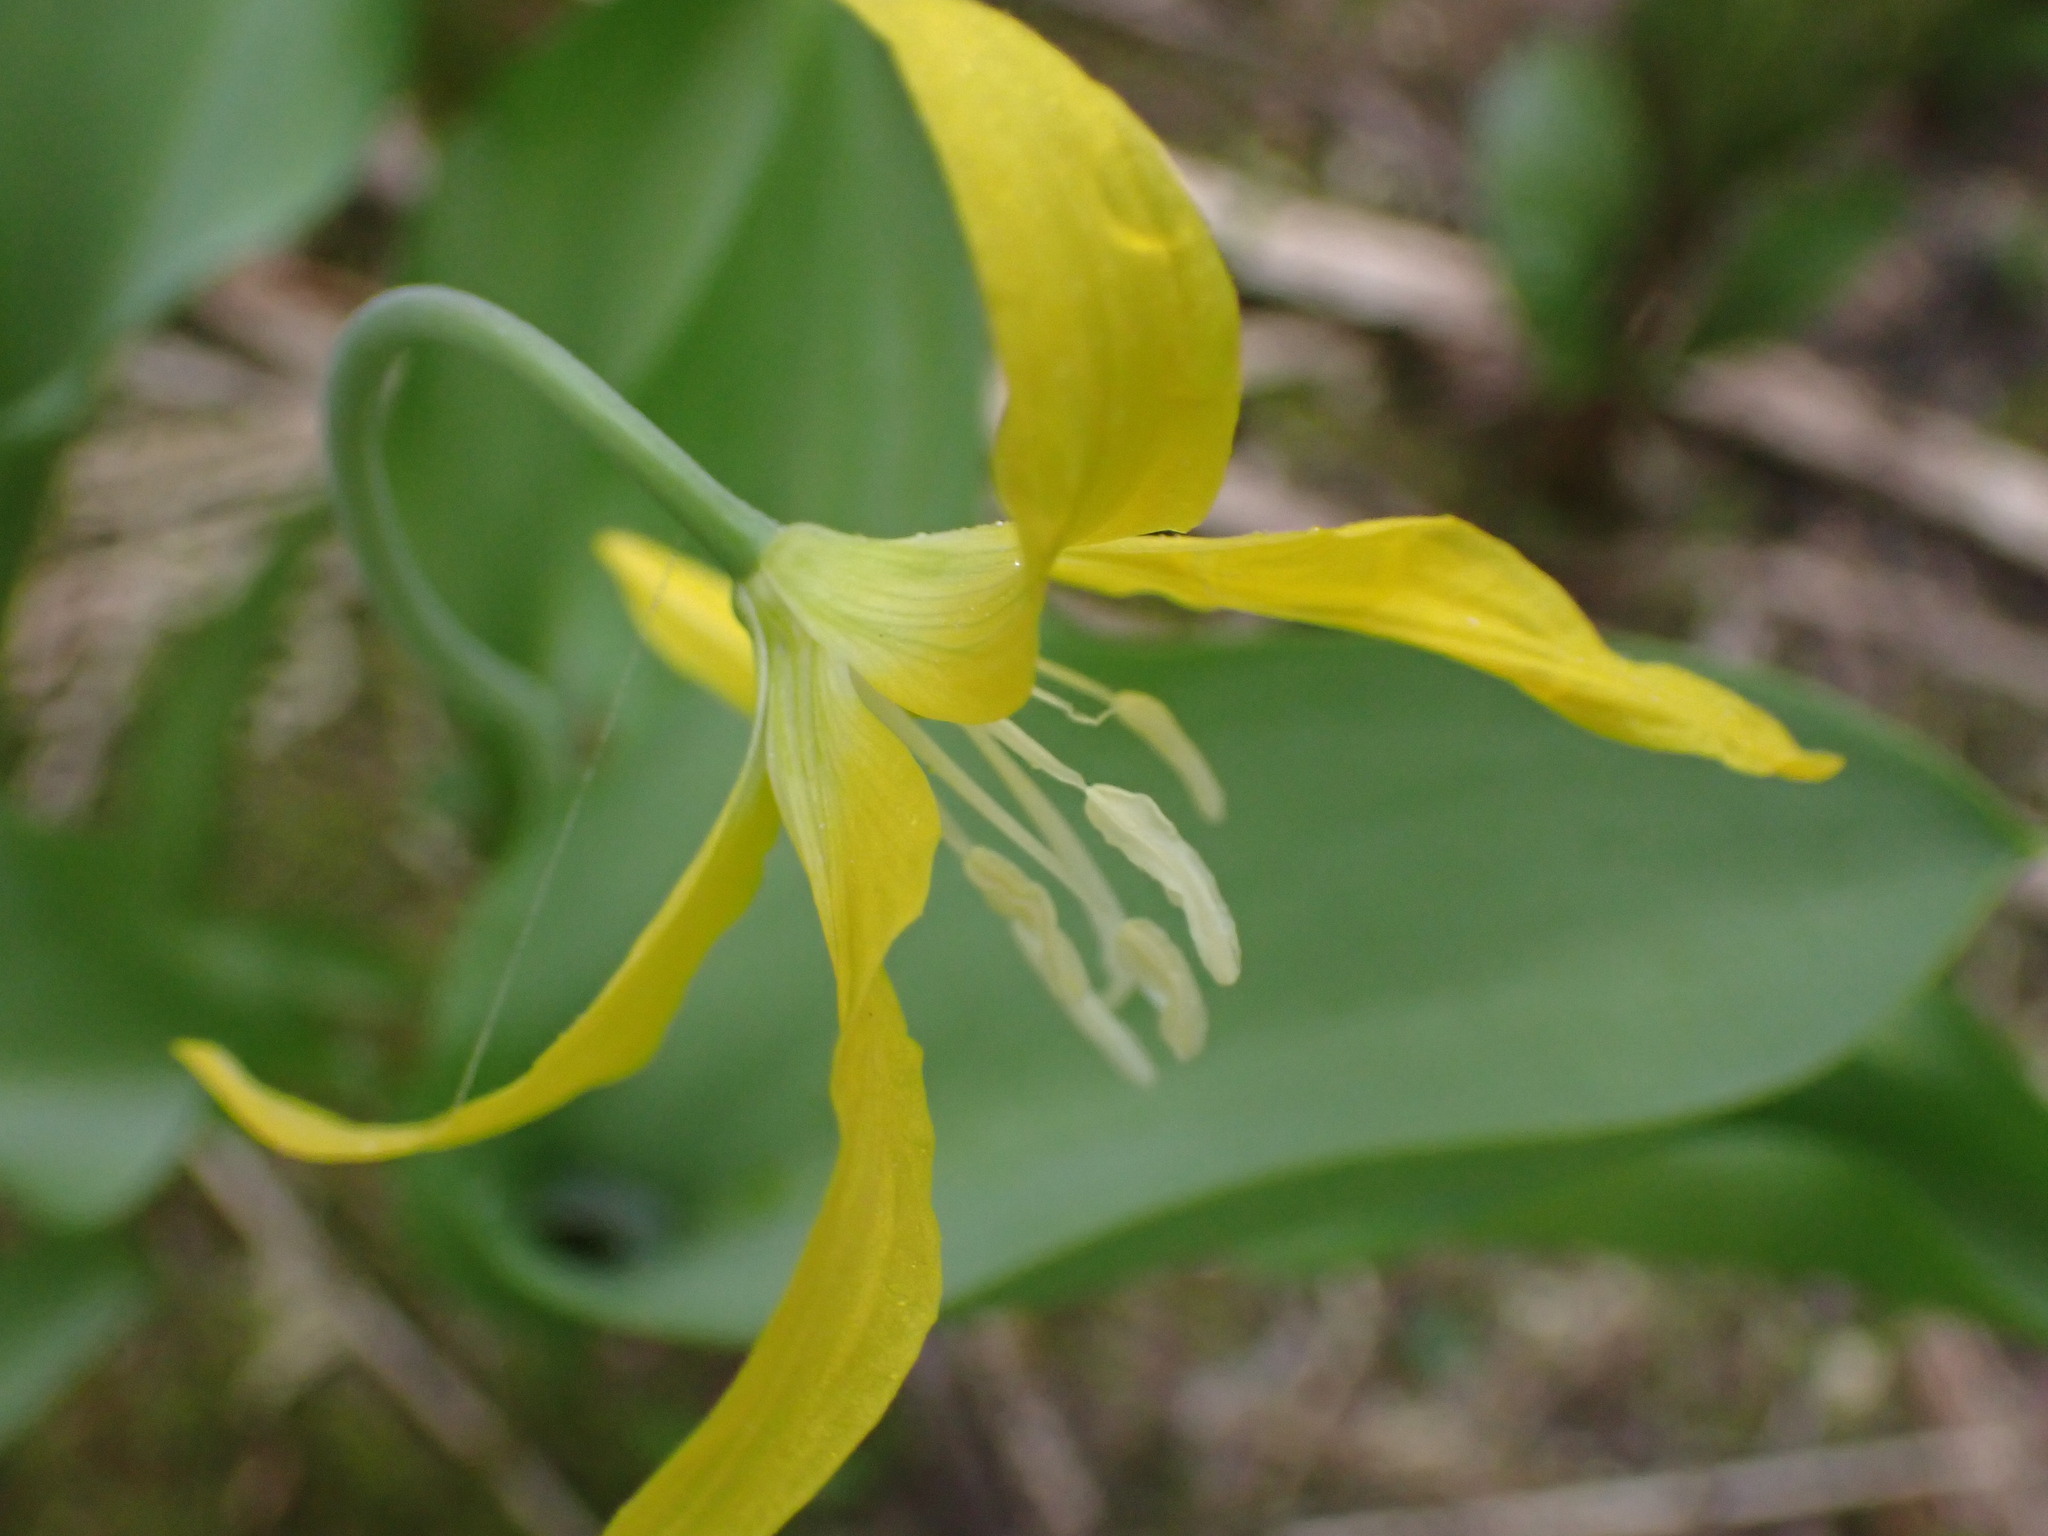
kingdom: Plantae
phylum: Tracheophyta
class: Liliopsida
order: Liliales
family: Liliaceae
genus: Erythronium
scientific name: Erythronium grandiflorum
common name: Avalanche-lily
